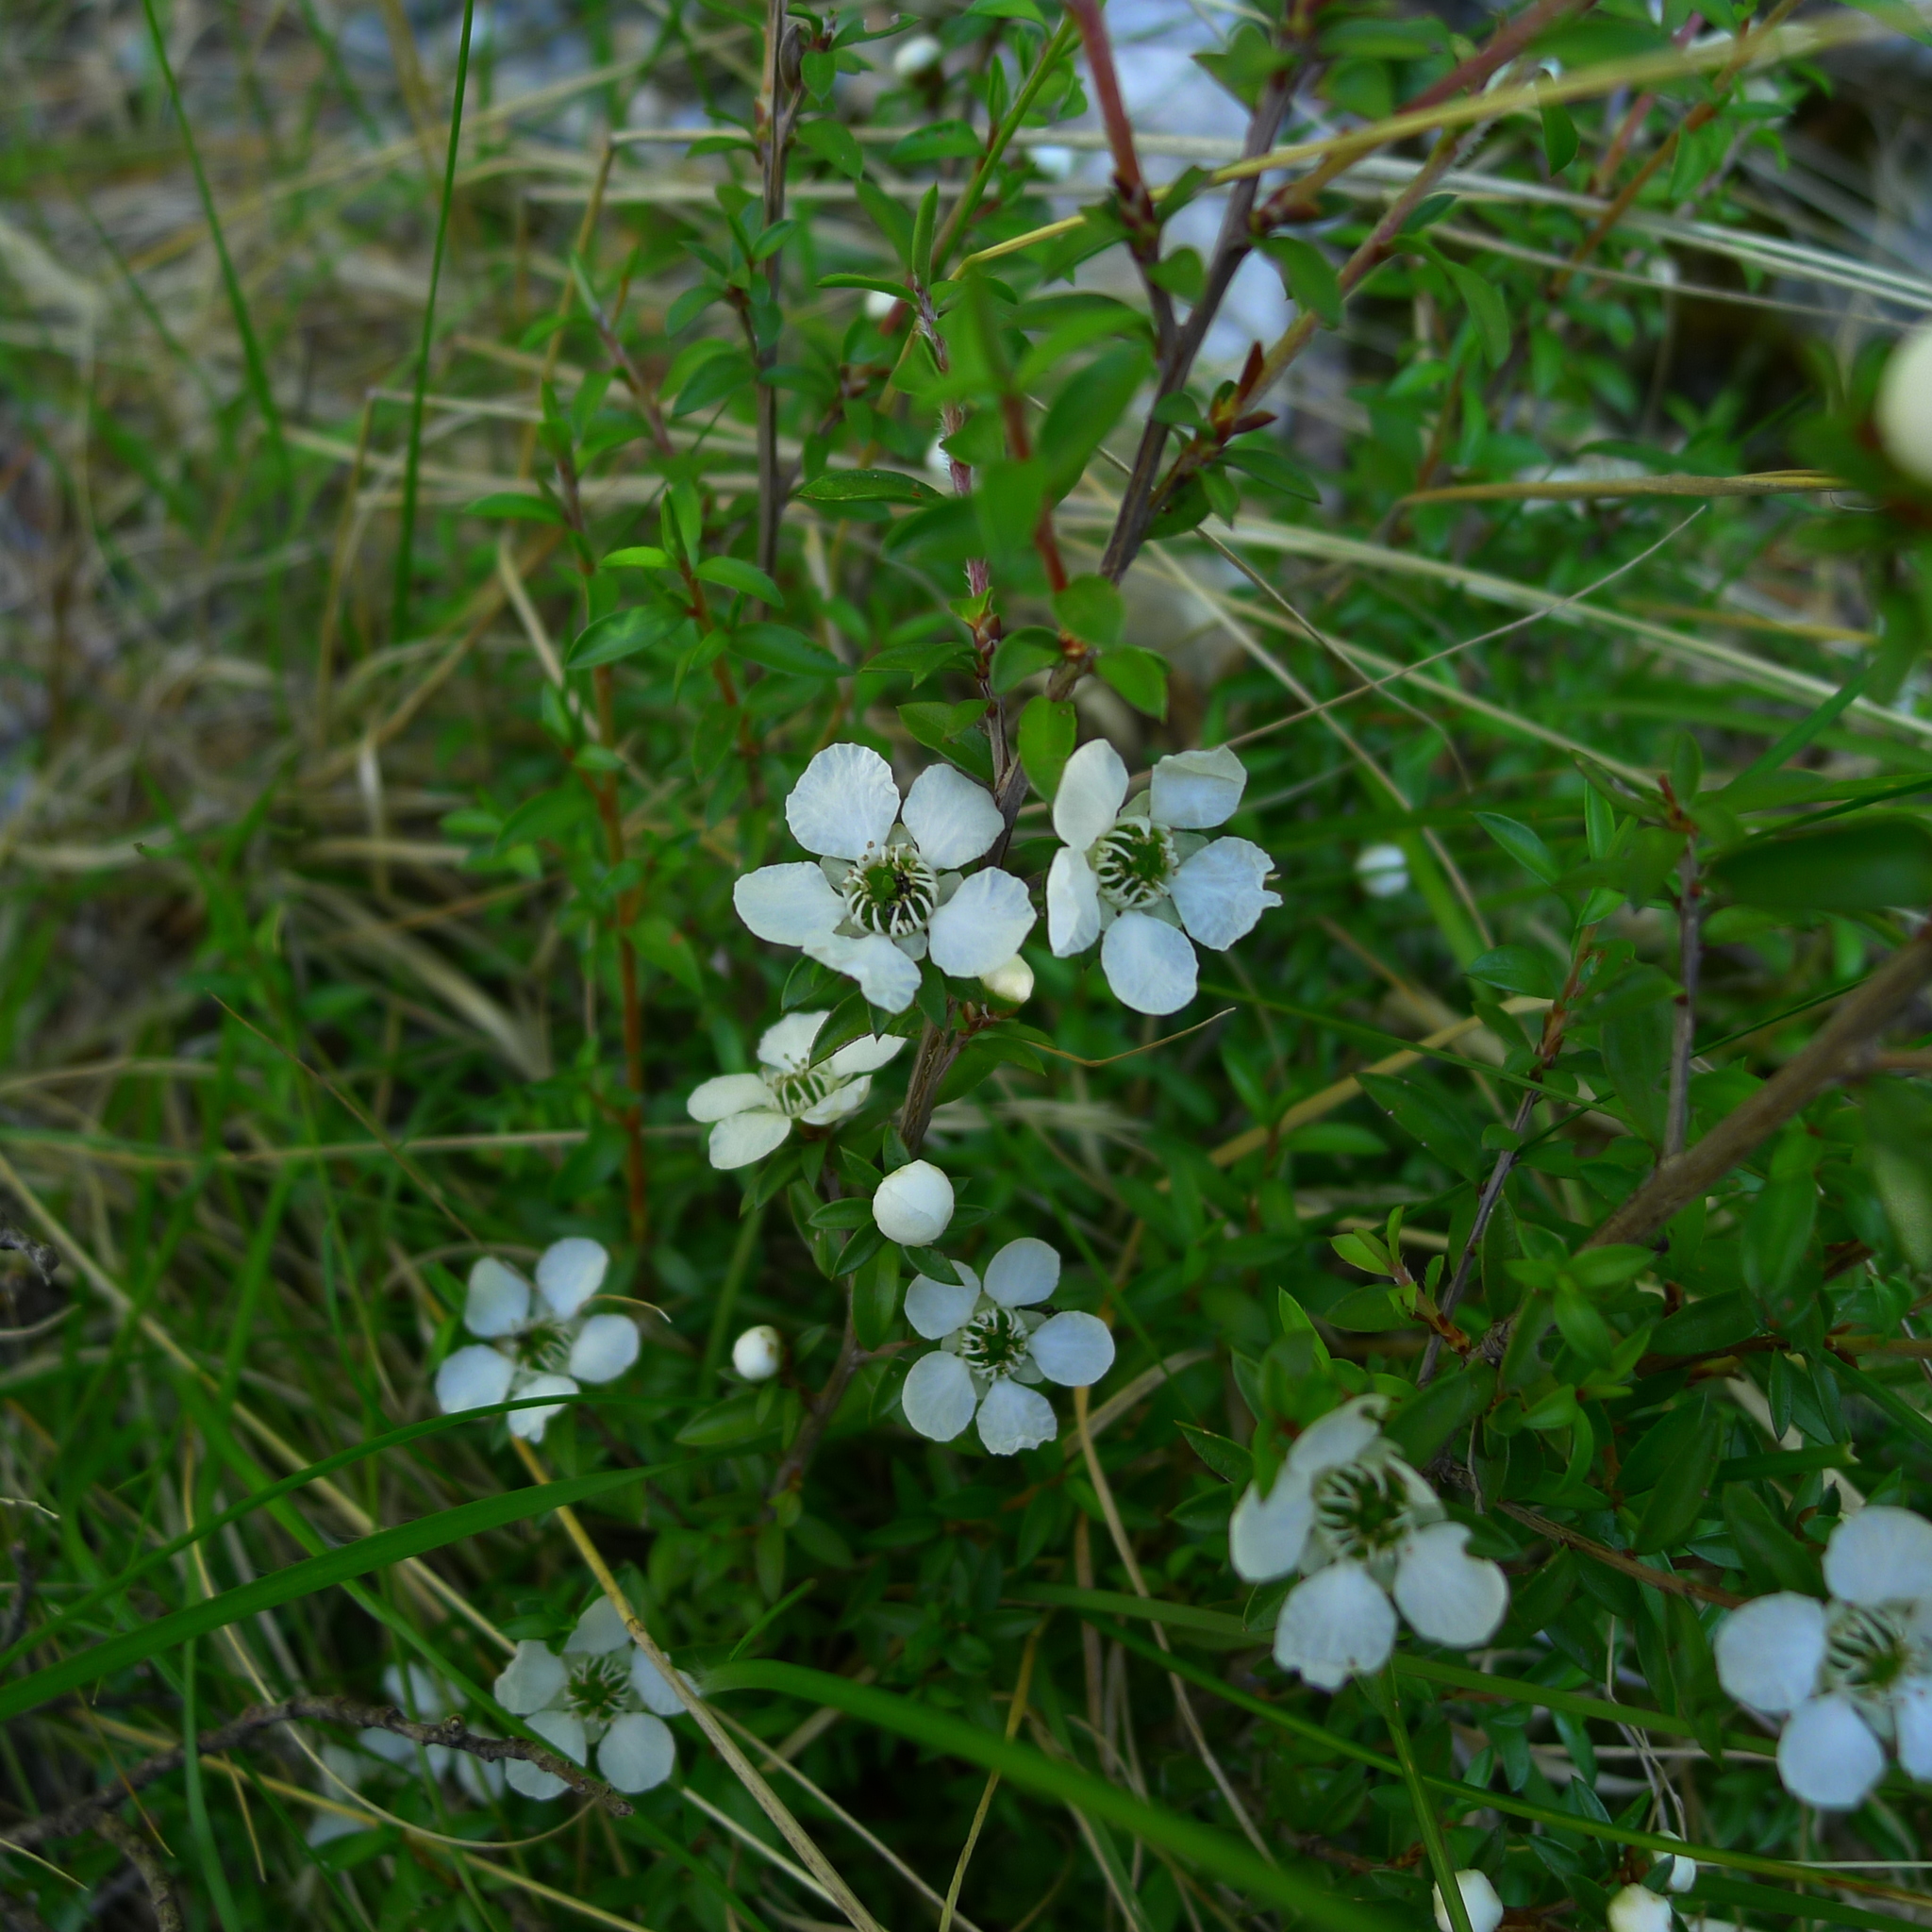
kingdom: Plantae
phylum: Tracheophyta
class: Magnoliopsida
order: Myrtales
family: Myrtaceae
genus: Leptospermum
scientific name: Leptospermum scoparium
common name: Broom tea-tree
